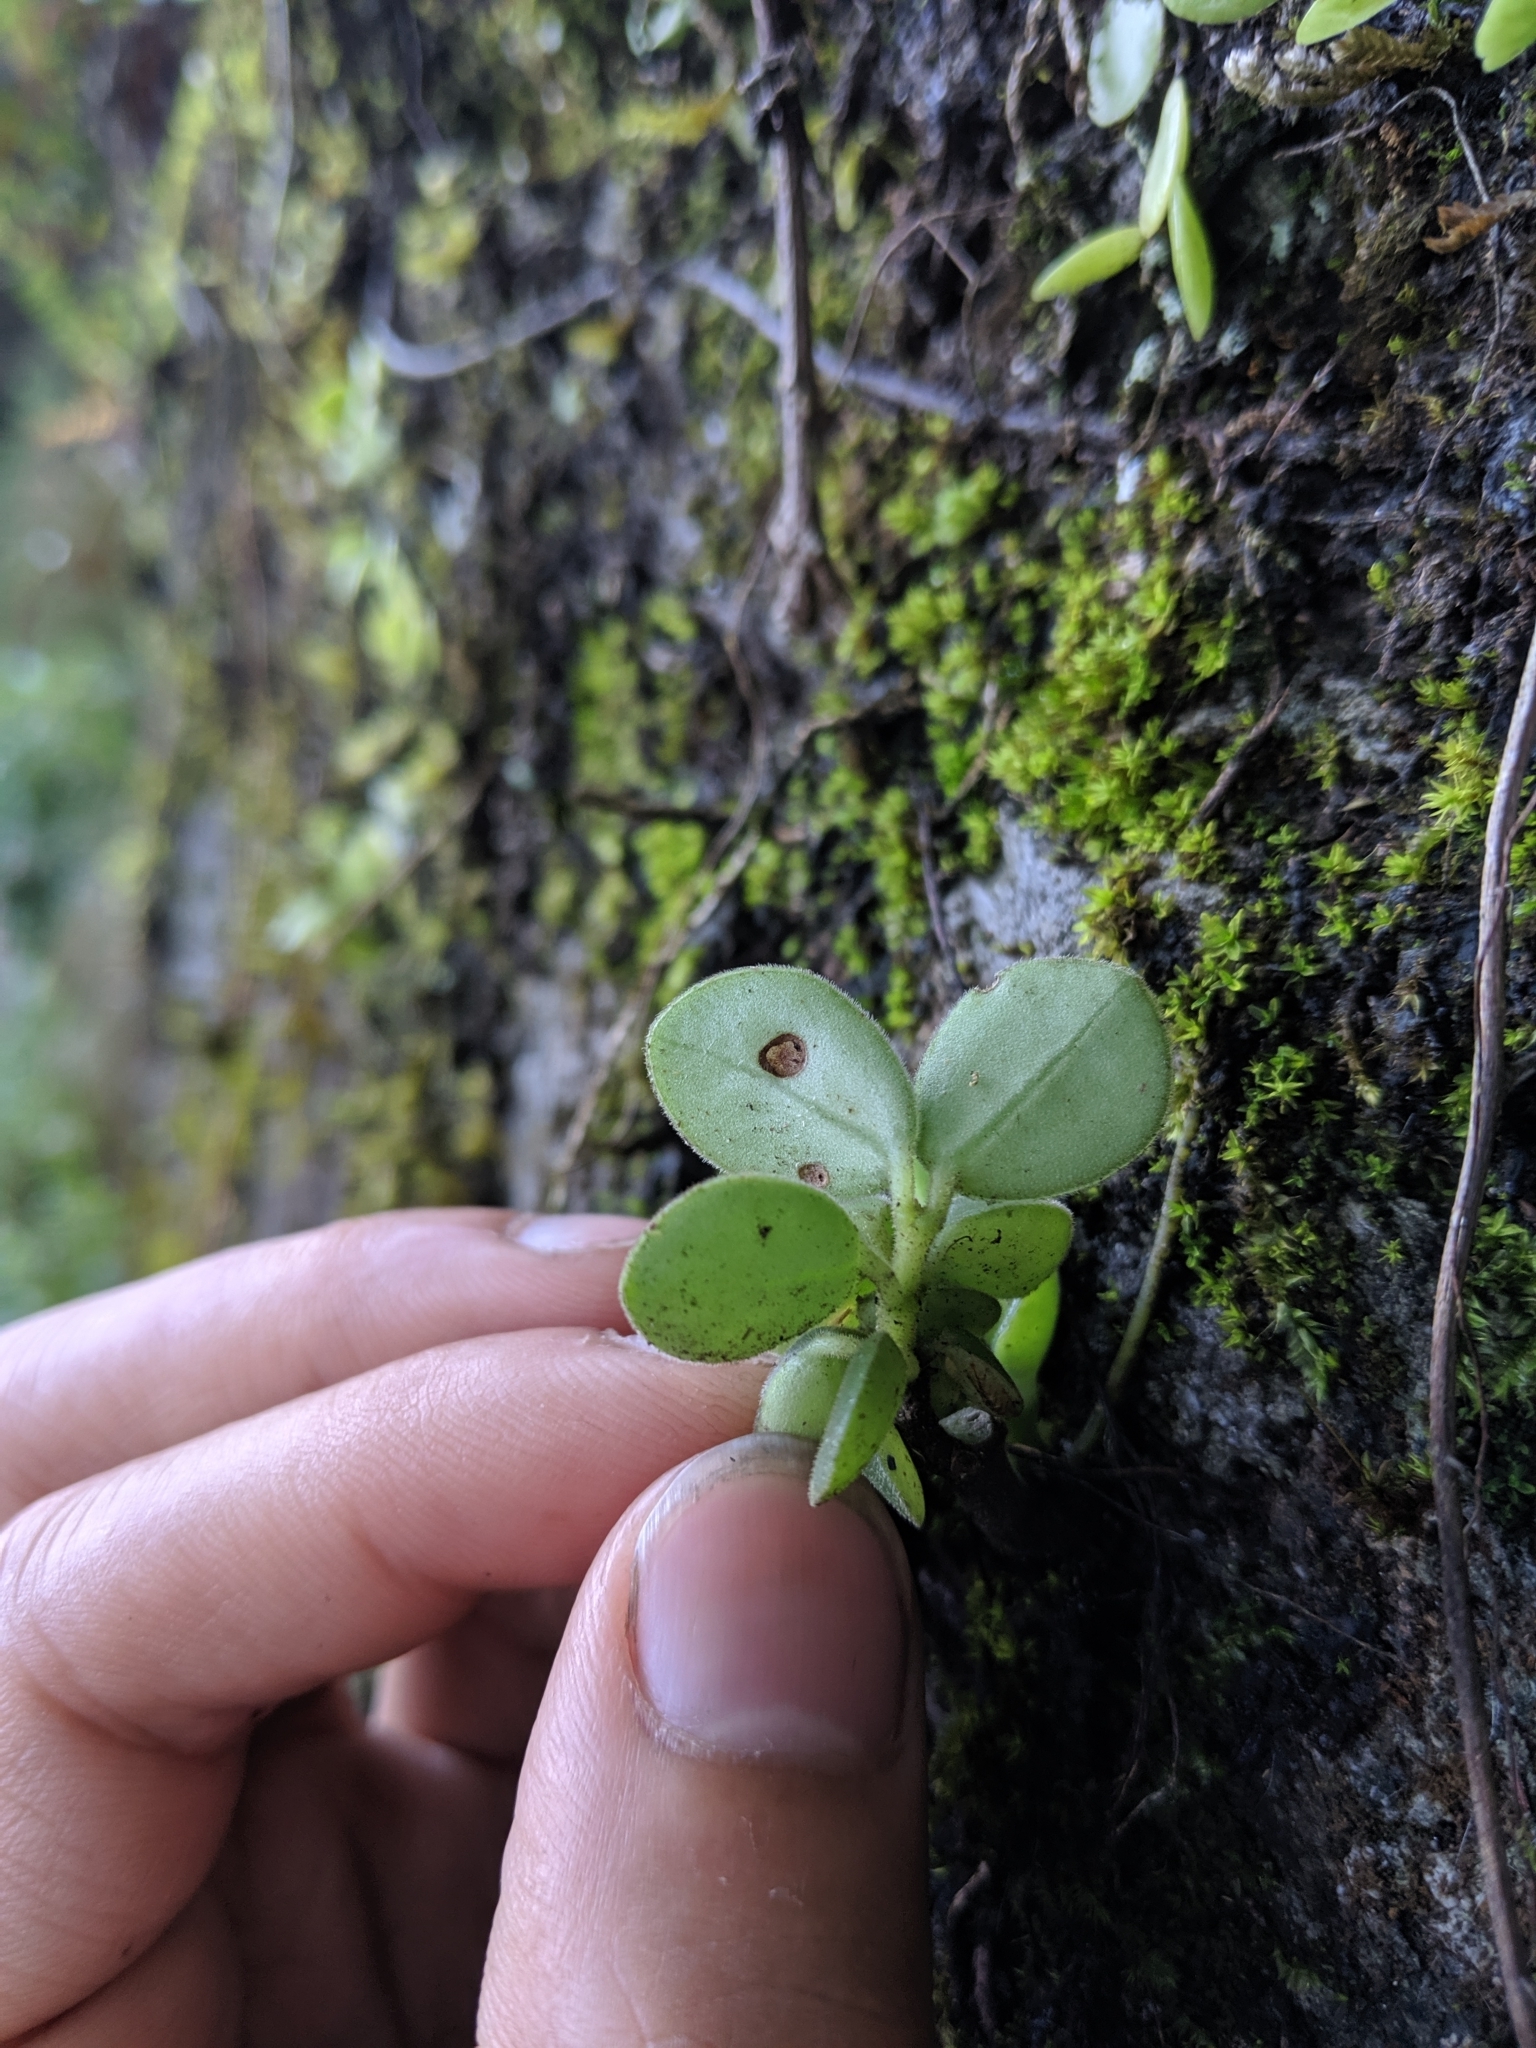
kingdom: Plantae
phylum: Tracheophyta
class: Magnoliopsida
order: Piperales
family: Piperaceae
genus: Peperomia
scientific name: Peperomia japonica
